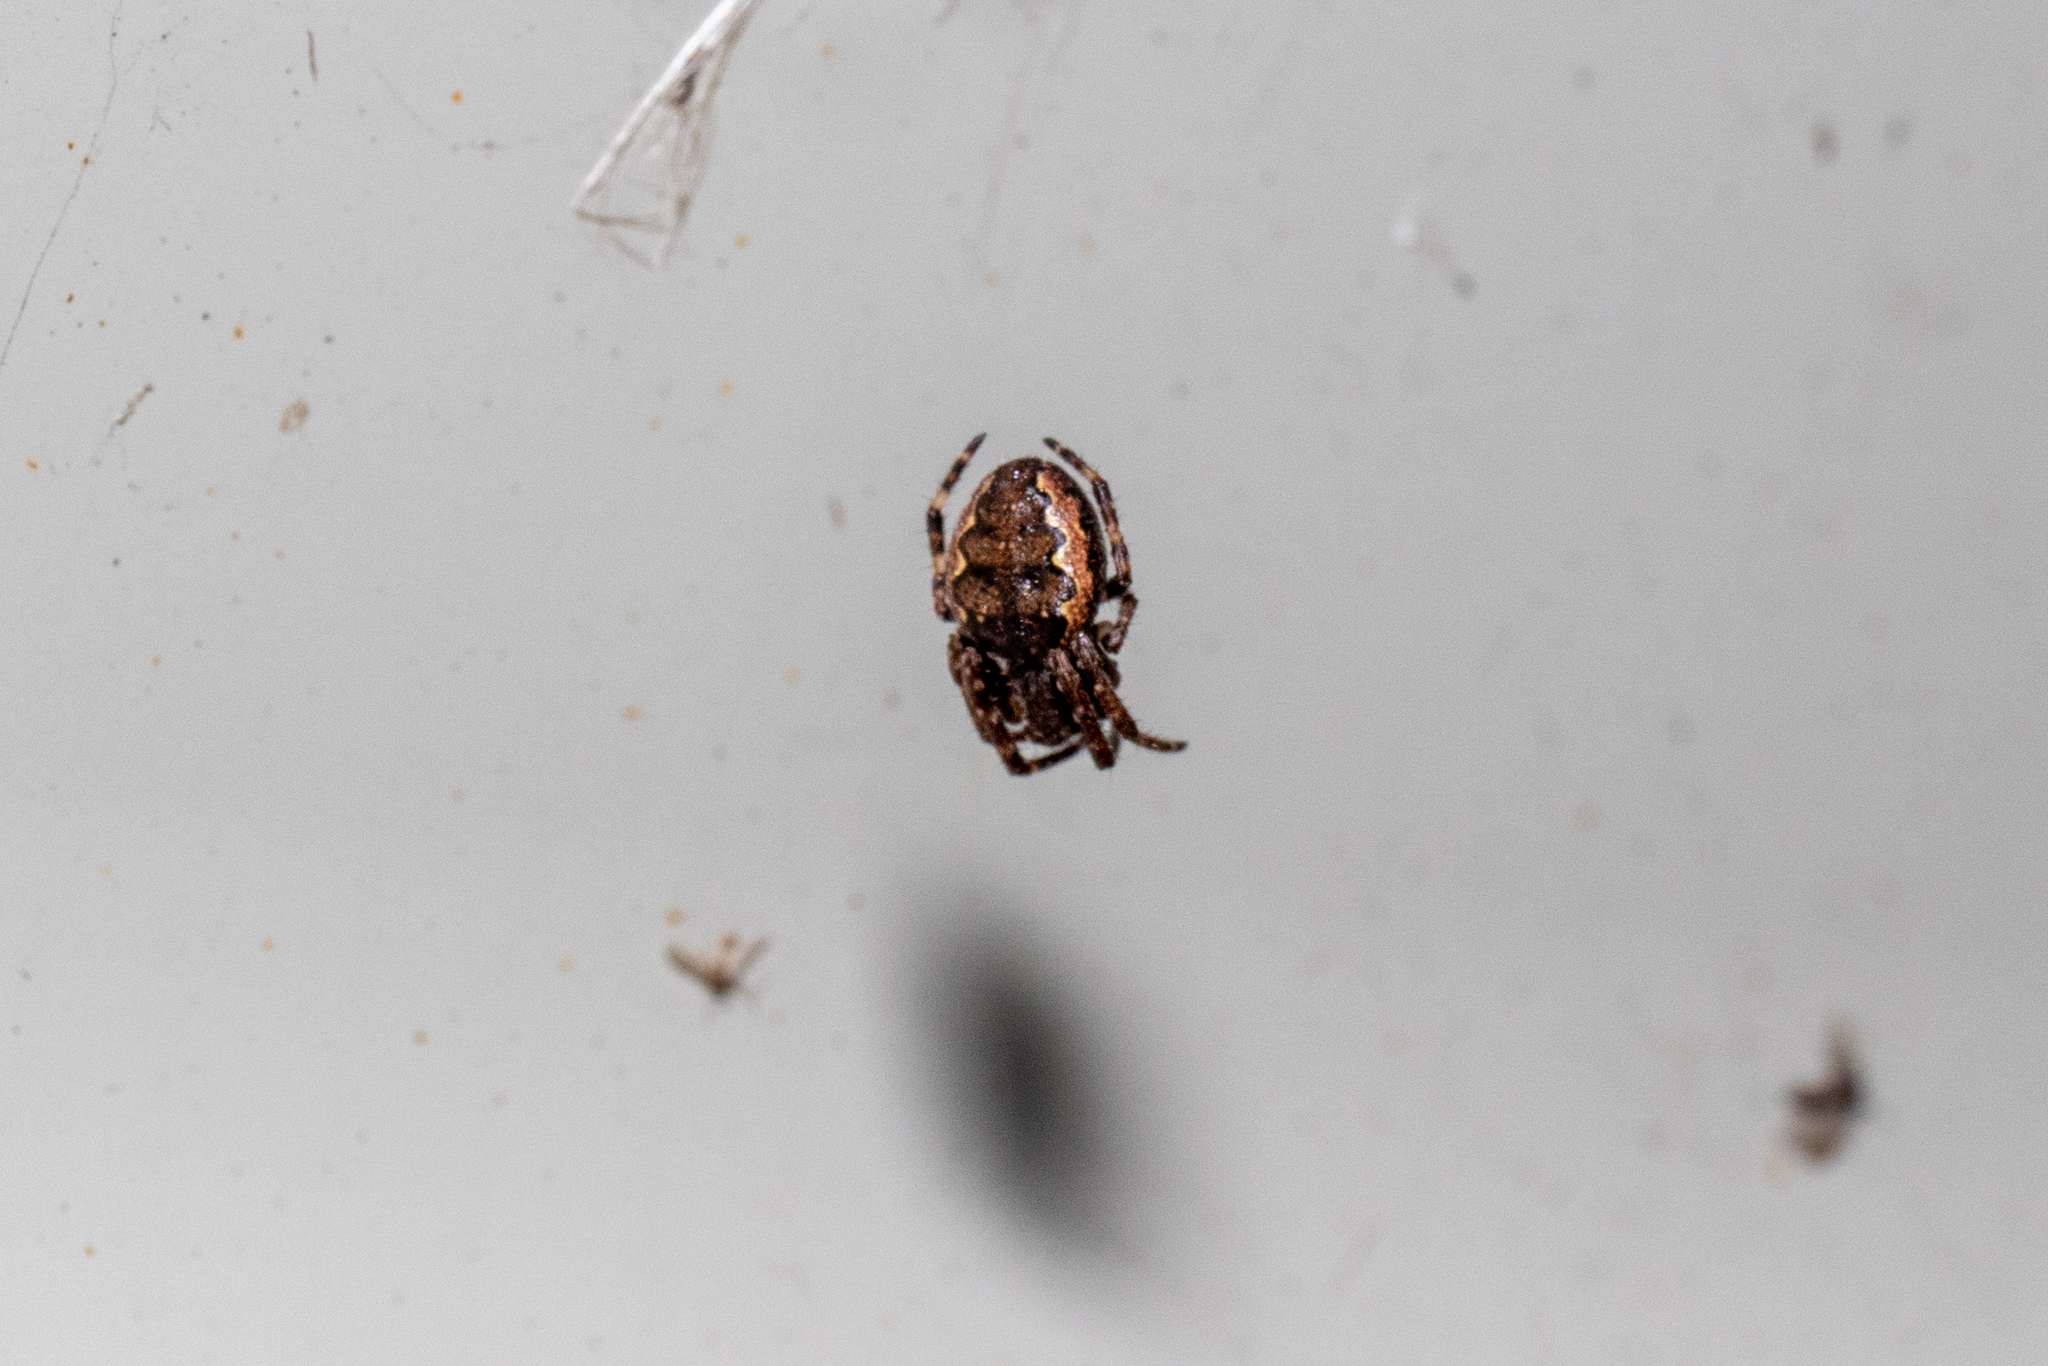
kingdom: Animalia
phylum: Arthropoda
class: Arachnida
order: Araneae
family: Araneidae
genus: Nuctenea
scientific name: Nuctenea umbratica
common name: Toad spider
